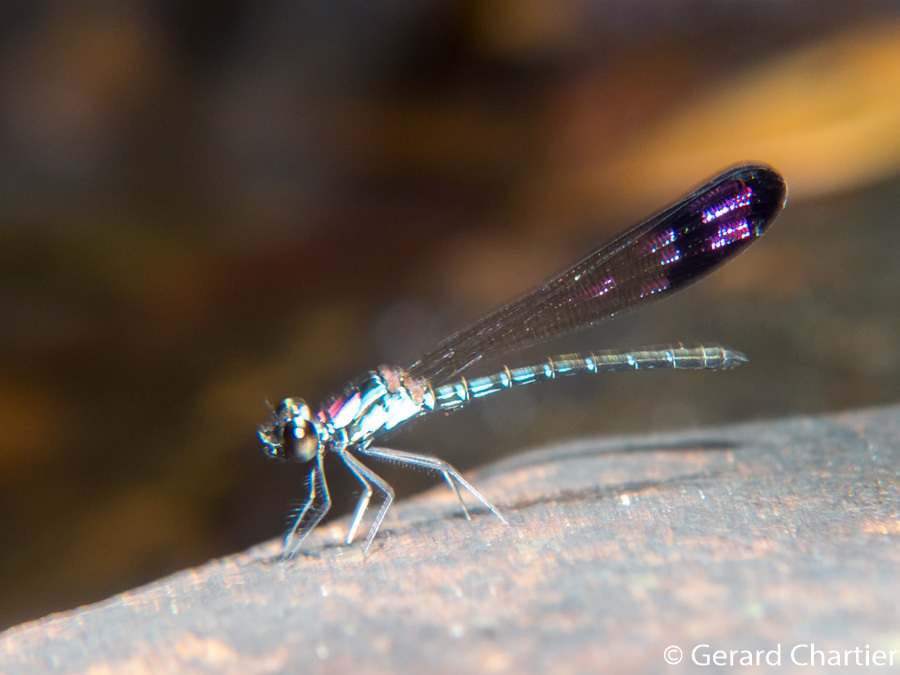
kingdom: Animalia
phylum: Arthropoda
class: Insecta
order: Odonata
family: Chlorocyphidae
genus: Heliocypha
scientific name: Heliocypha biforata
